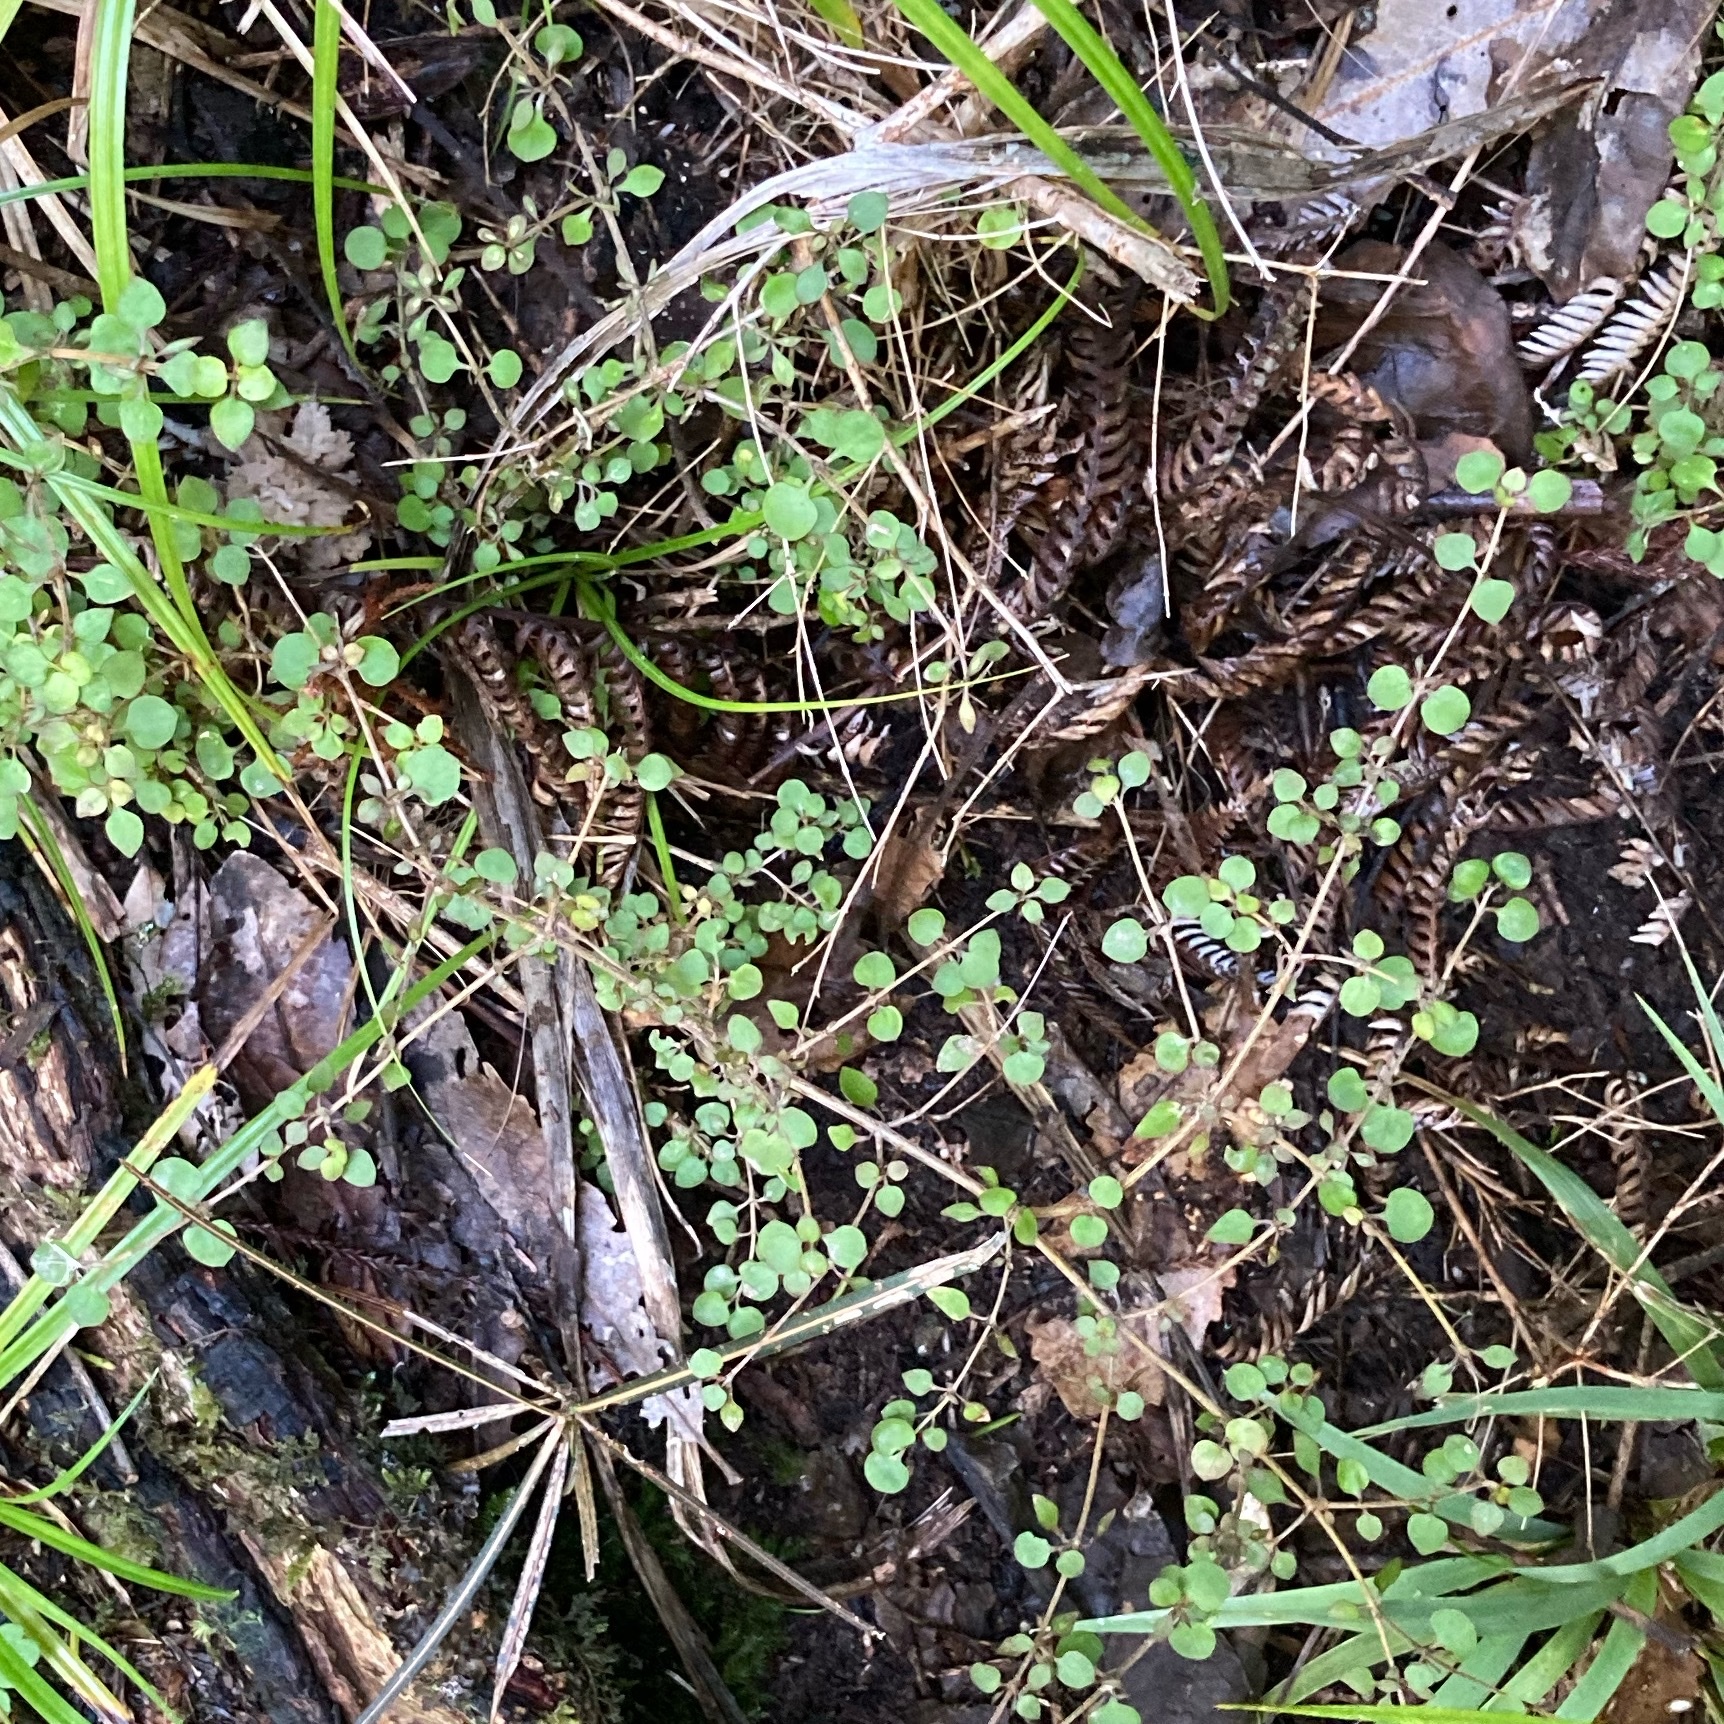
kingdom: Plantae
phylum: Tracheophyta
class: Magnoliopsida
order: Gentianales
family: Rubiaceae
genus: Coprosma
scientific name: Coprosma rhamnoides
